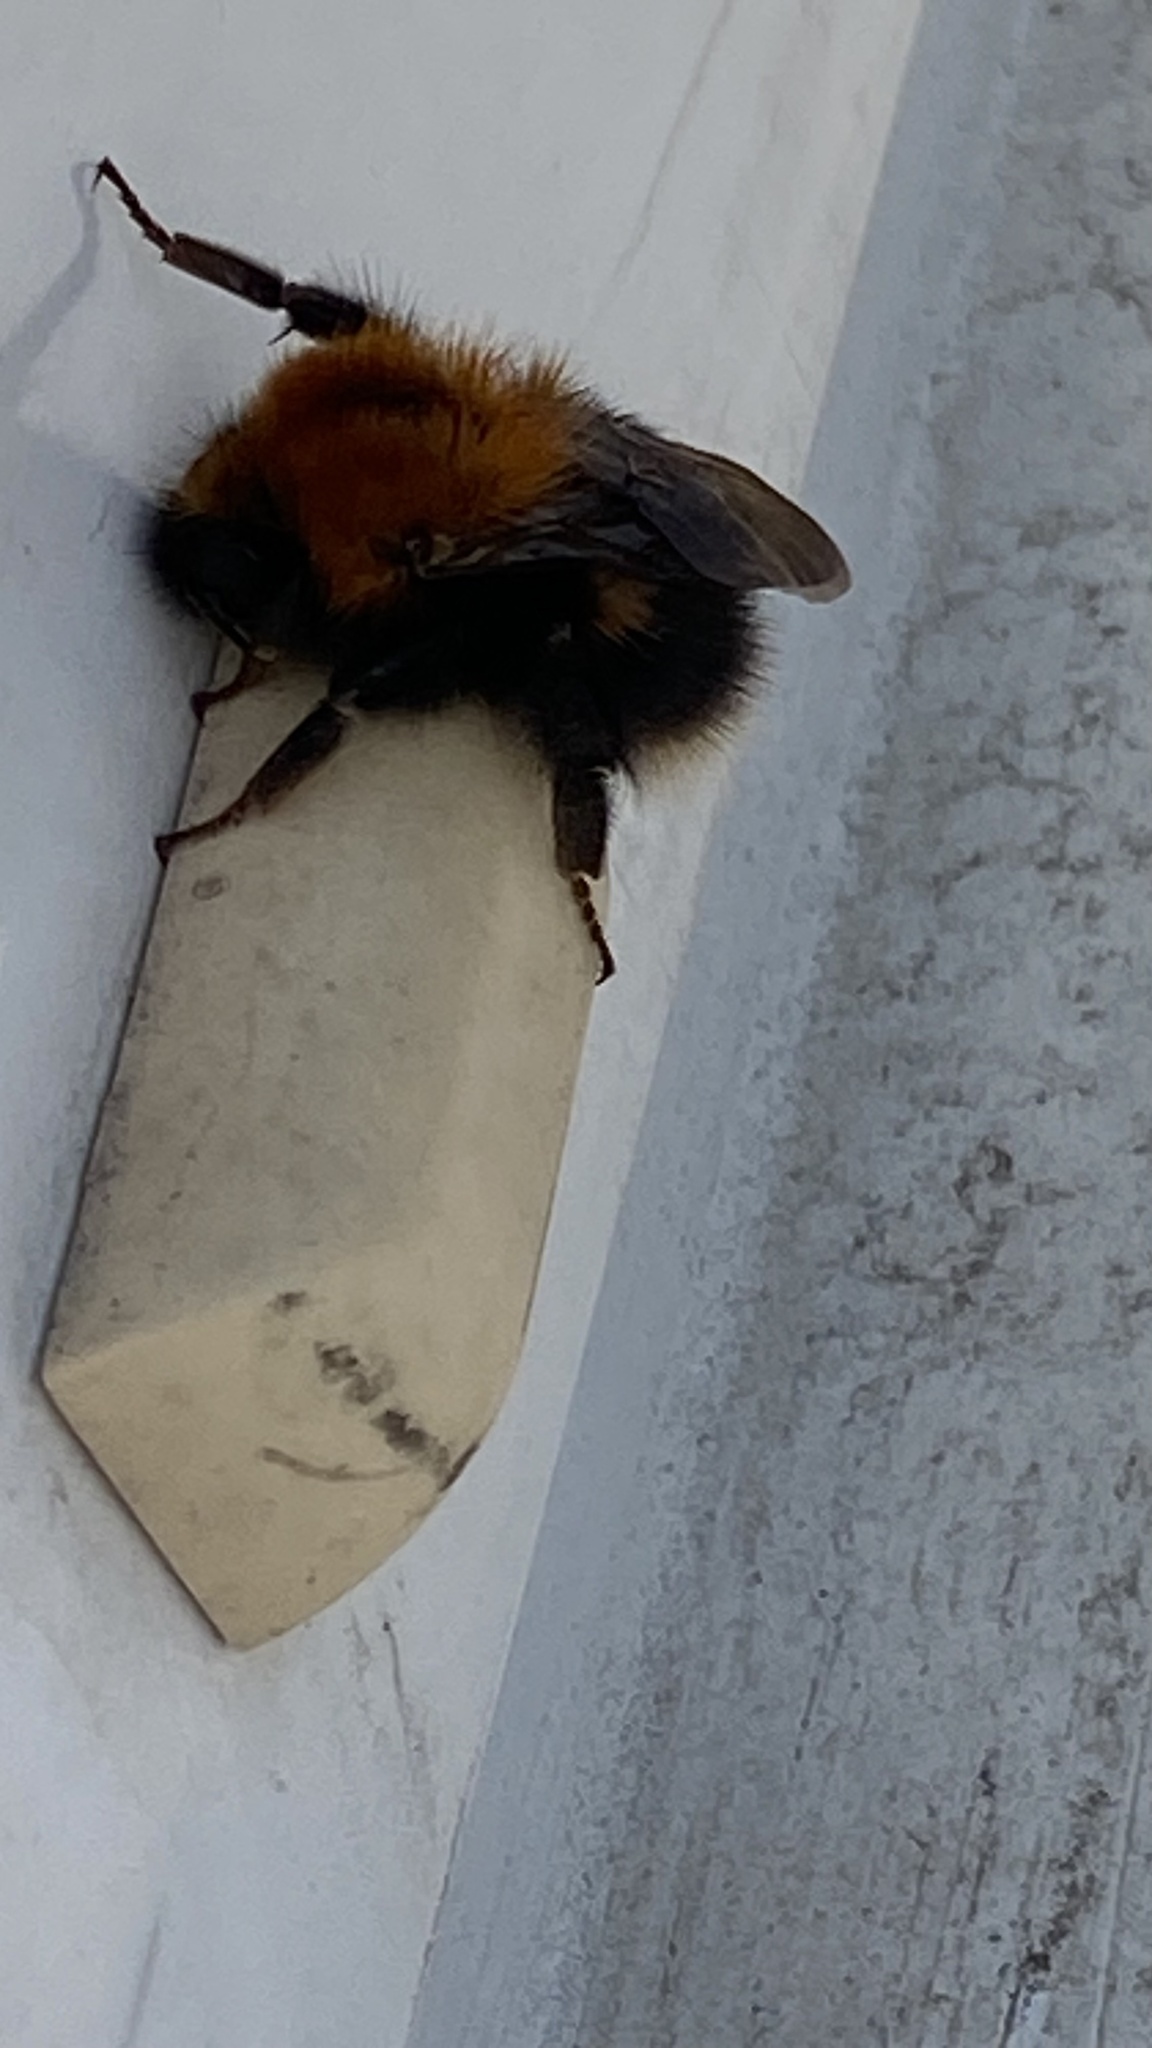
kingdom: Animalia
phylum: Arthropoda
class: Insecta
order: Hymenoptera
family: Apidae
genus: Bombus
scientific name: Bombus hypnorum
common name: New garden bumblebee
